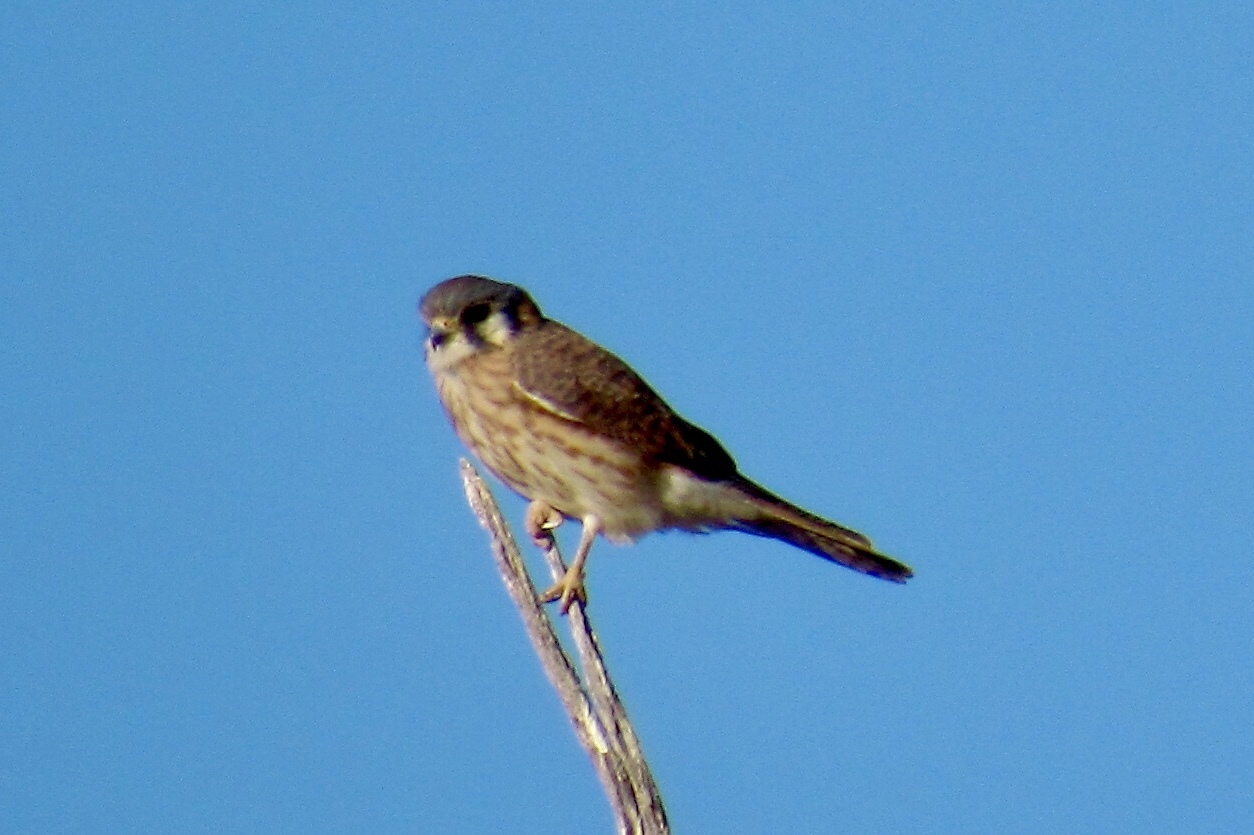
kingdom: Animalia
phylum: Chordata
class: Aves
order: Falconiformes
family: Falconidae
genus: Falco
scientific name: Falco sparverius
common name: American kestrel
